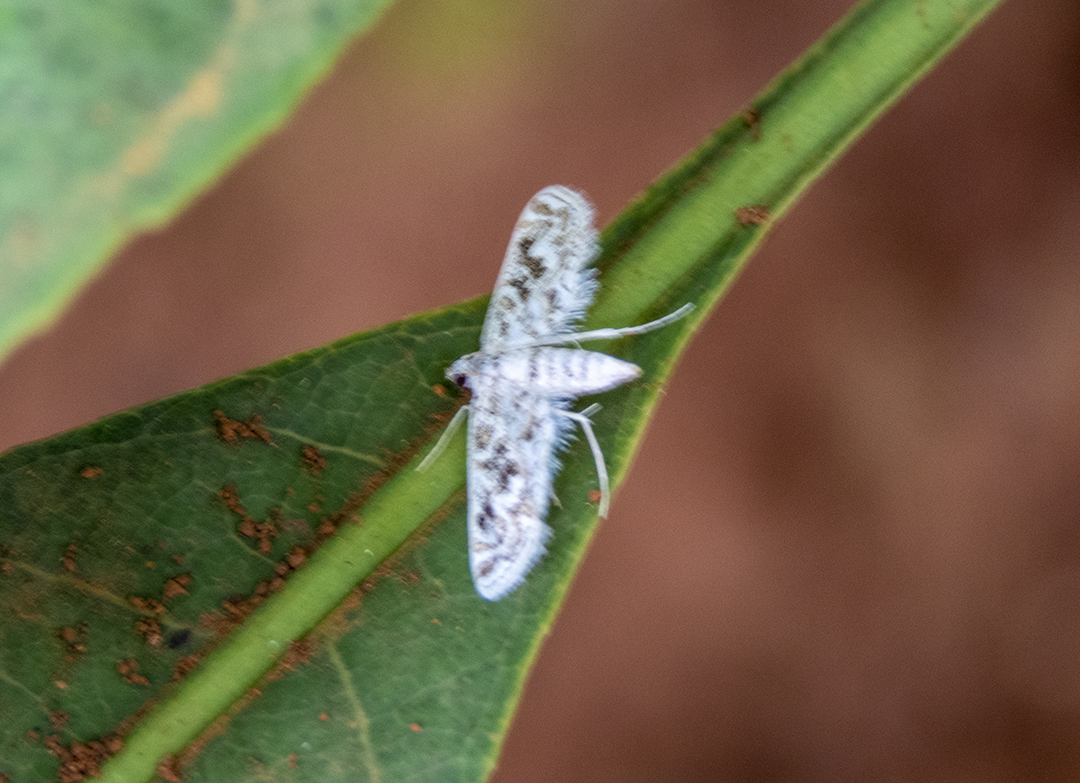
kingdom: Animalia
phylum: Arthropoda
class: Insecta
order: Lepidoptera
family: Crambidae
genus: Parapoynx
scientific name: Parapoynx diminutalis
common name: Hydrilla leafcutter
